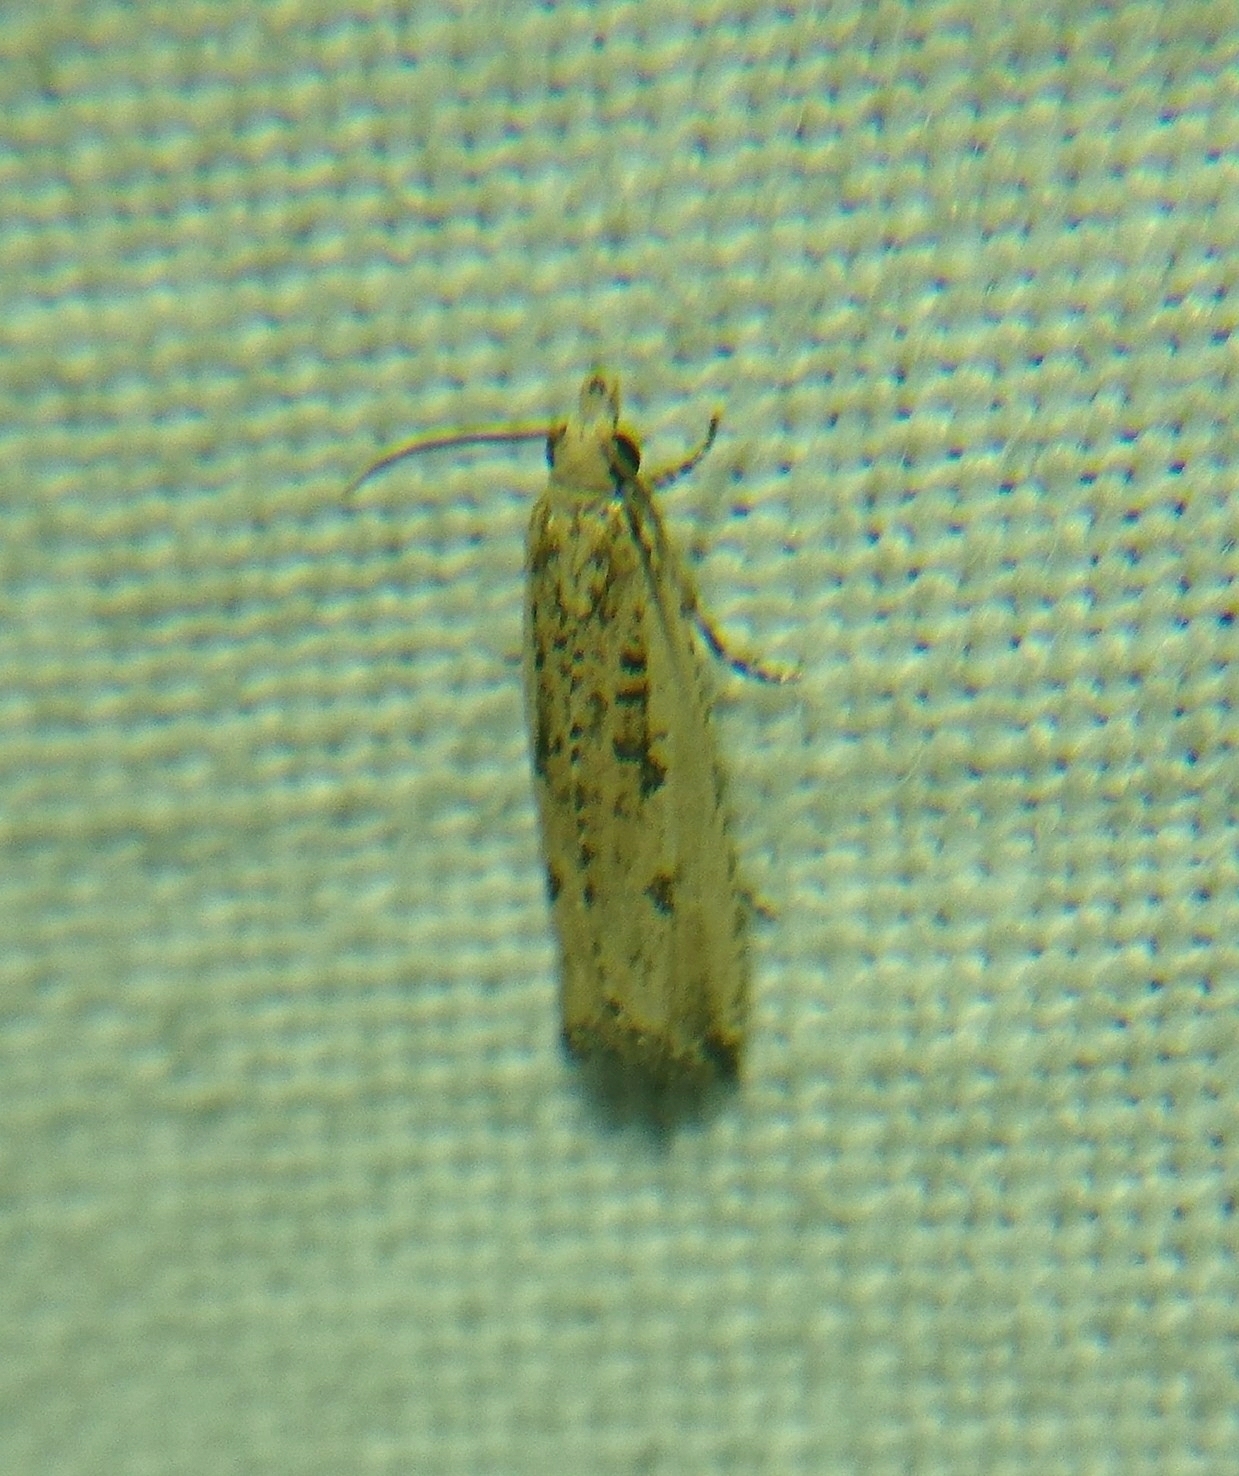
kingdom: Animalia
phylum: Arthropoda
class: Insecta
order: Lepidoptera
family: Tortricidae
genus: Bactra
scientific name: Bactra verutana
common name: Javelin moth
